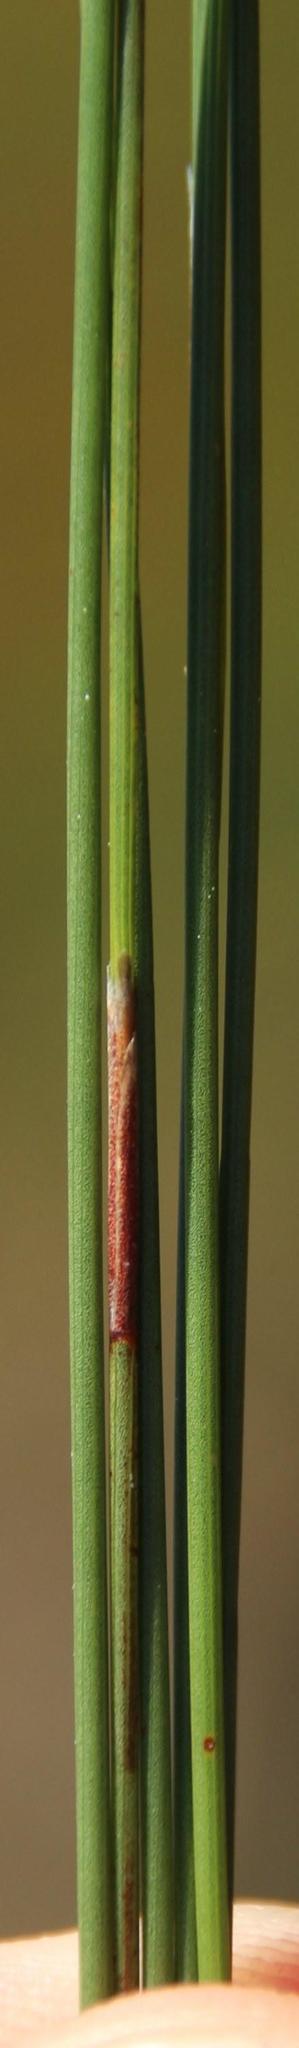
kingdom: Plantae
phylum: Tracheophyta
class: Liliopsida
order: Poales
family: Restionaceae
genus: Hypodiscus
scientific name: Hypodiscus neesii
